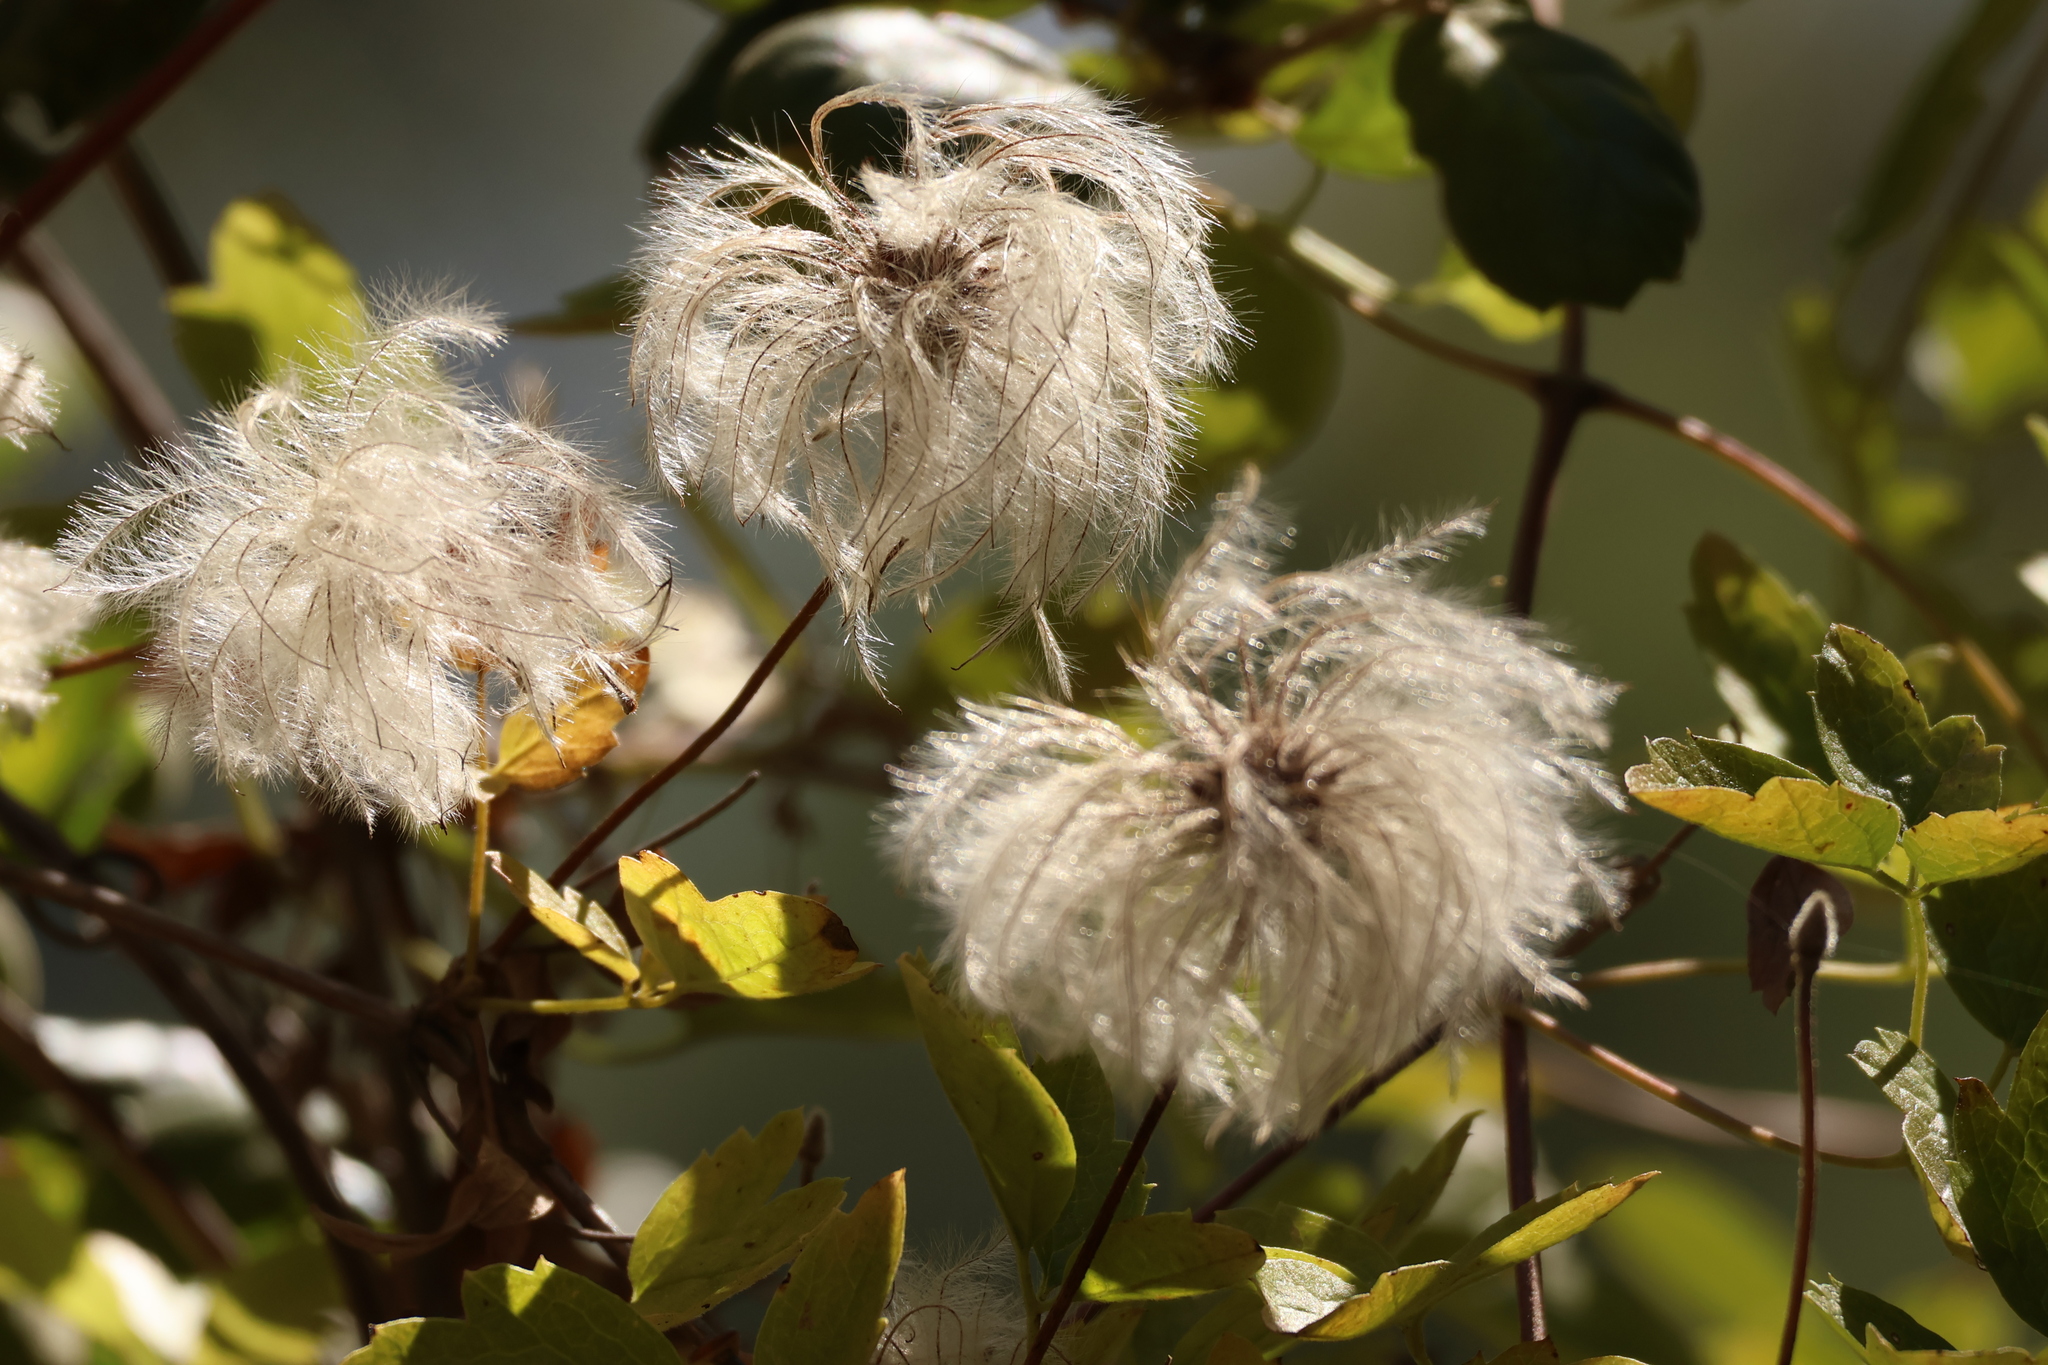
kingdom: Plantae
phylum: Tracheophyta
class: Magnoliopsida
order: Ranunculales
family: Ranunculaceae
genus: Clematis
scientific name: Clematis lasiantha
